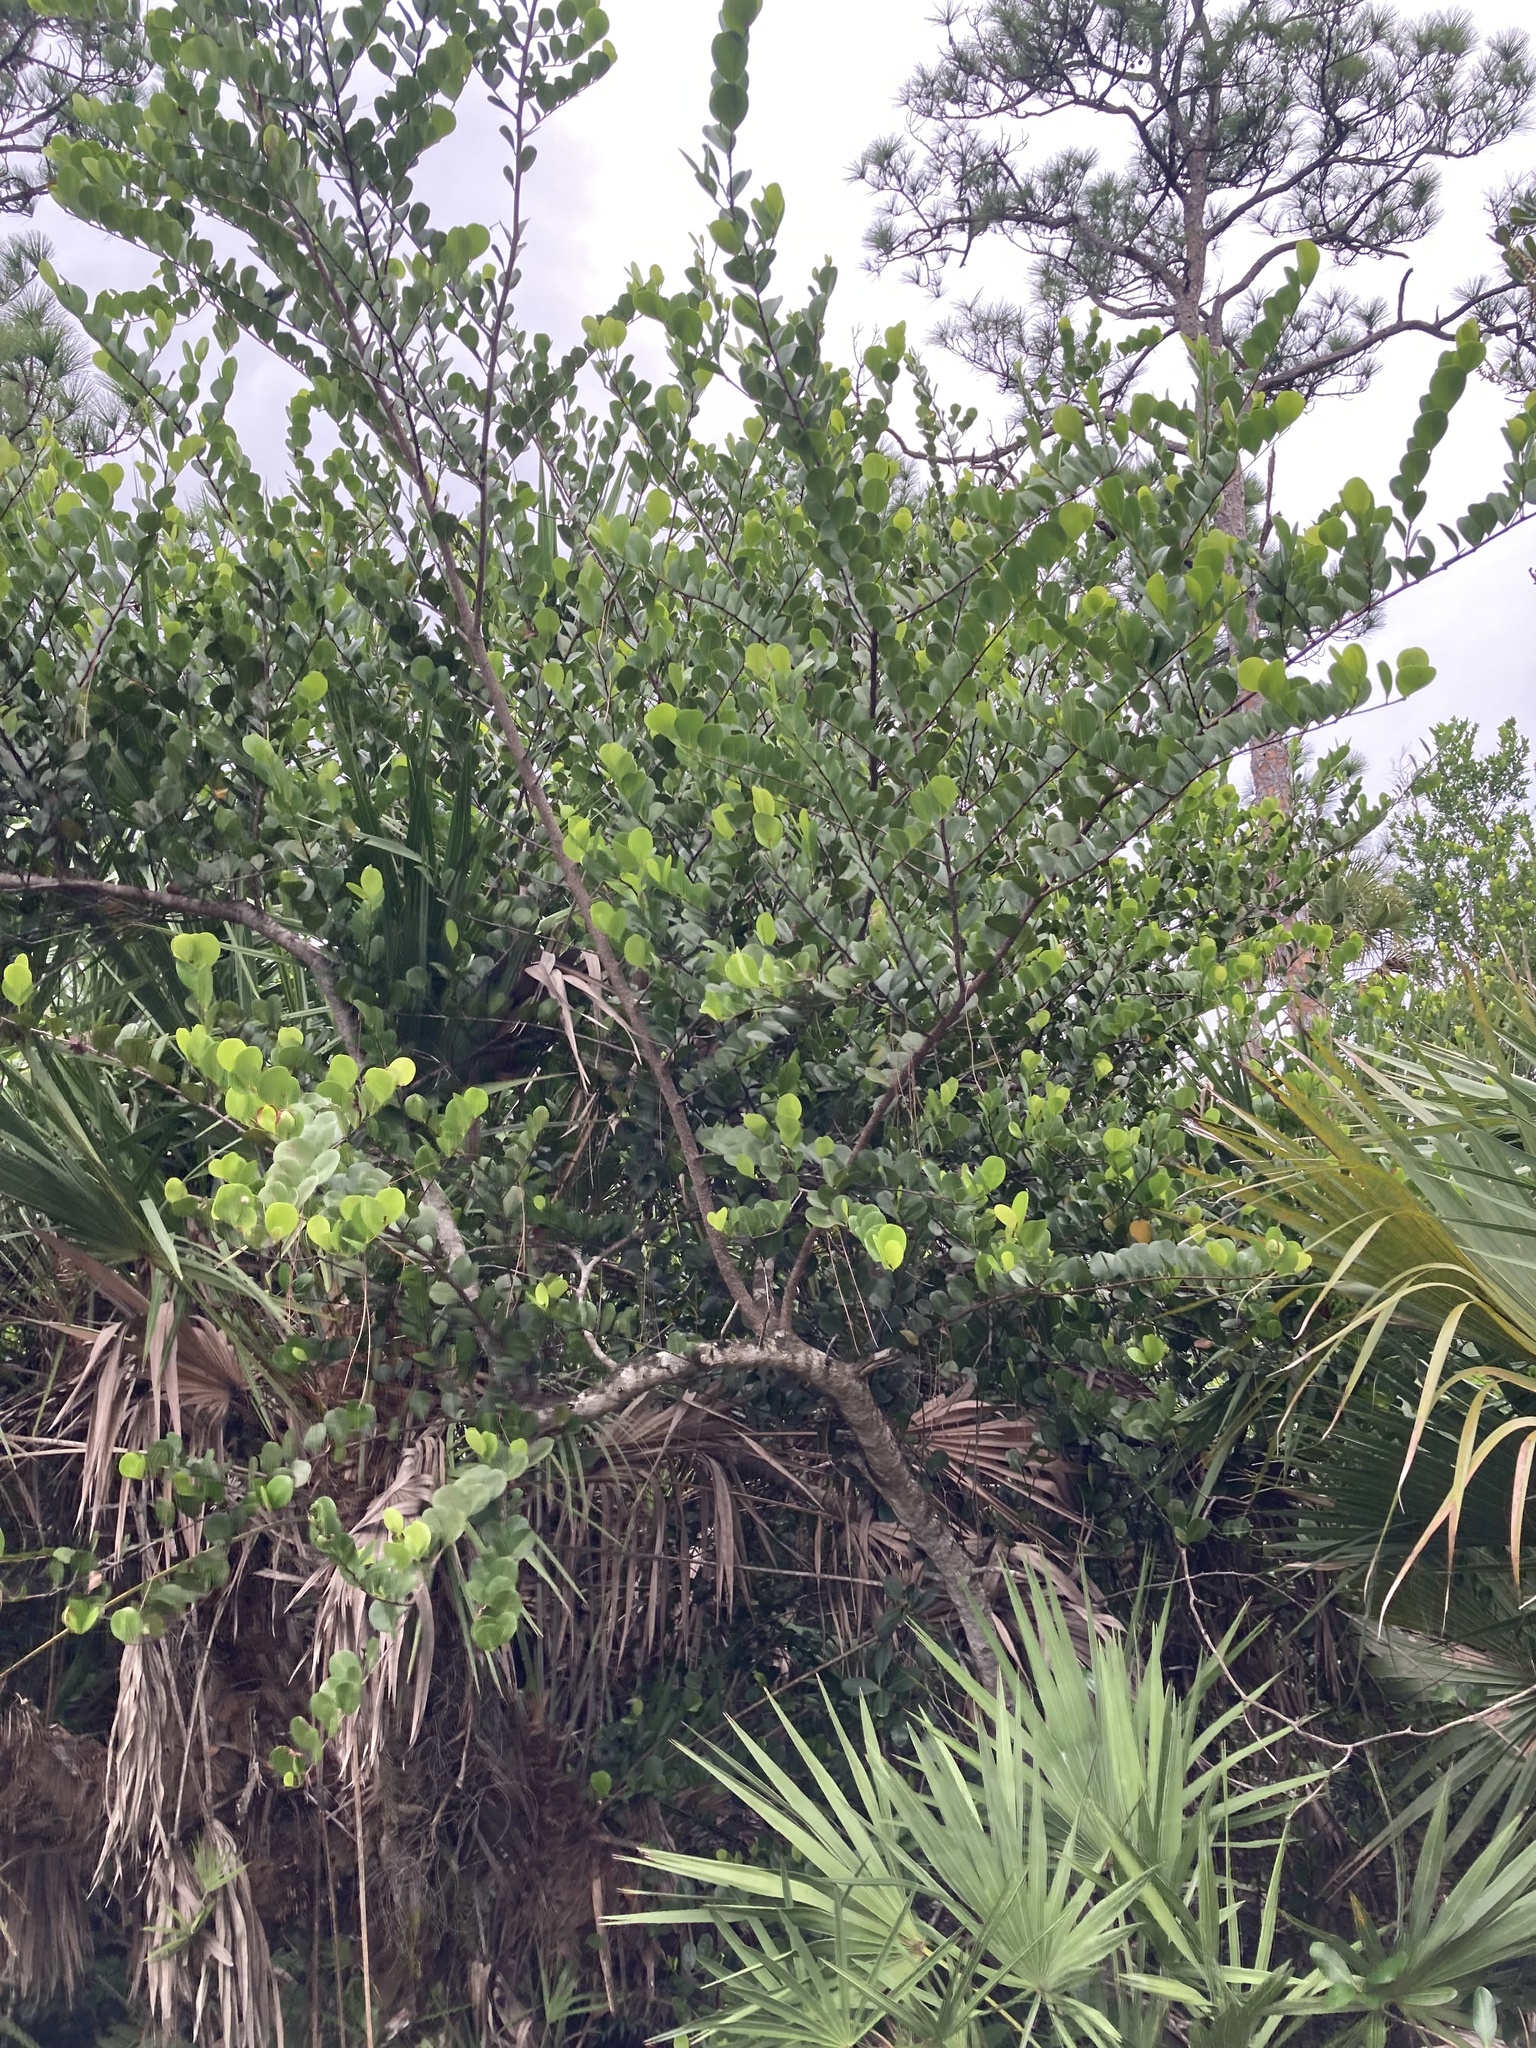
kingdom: Plantae
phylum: Tracheophyta
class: Magnoliopsida
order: Malpighiales
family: Chrysobalanaceae
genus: Chrysobalanus
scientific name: Chrysobalanus icaco
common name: Coco plum
